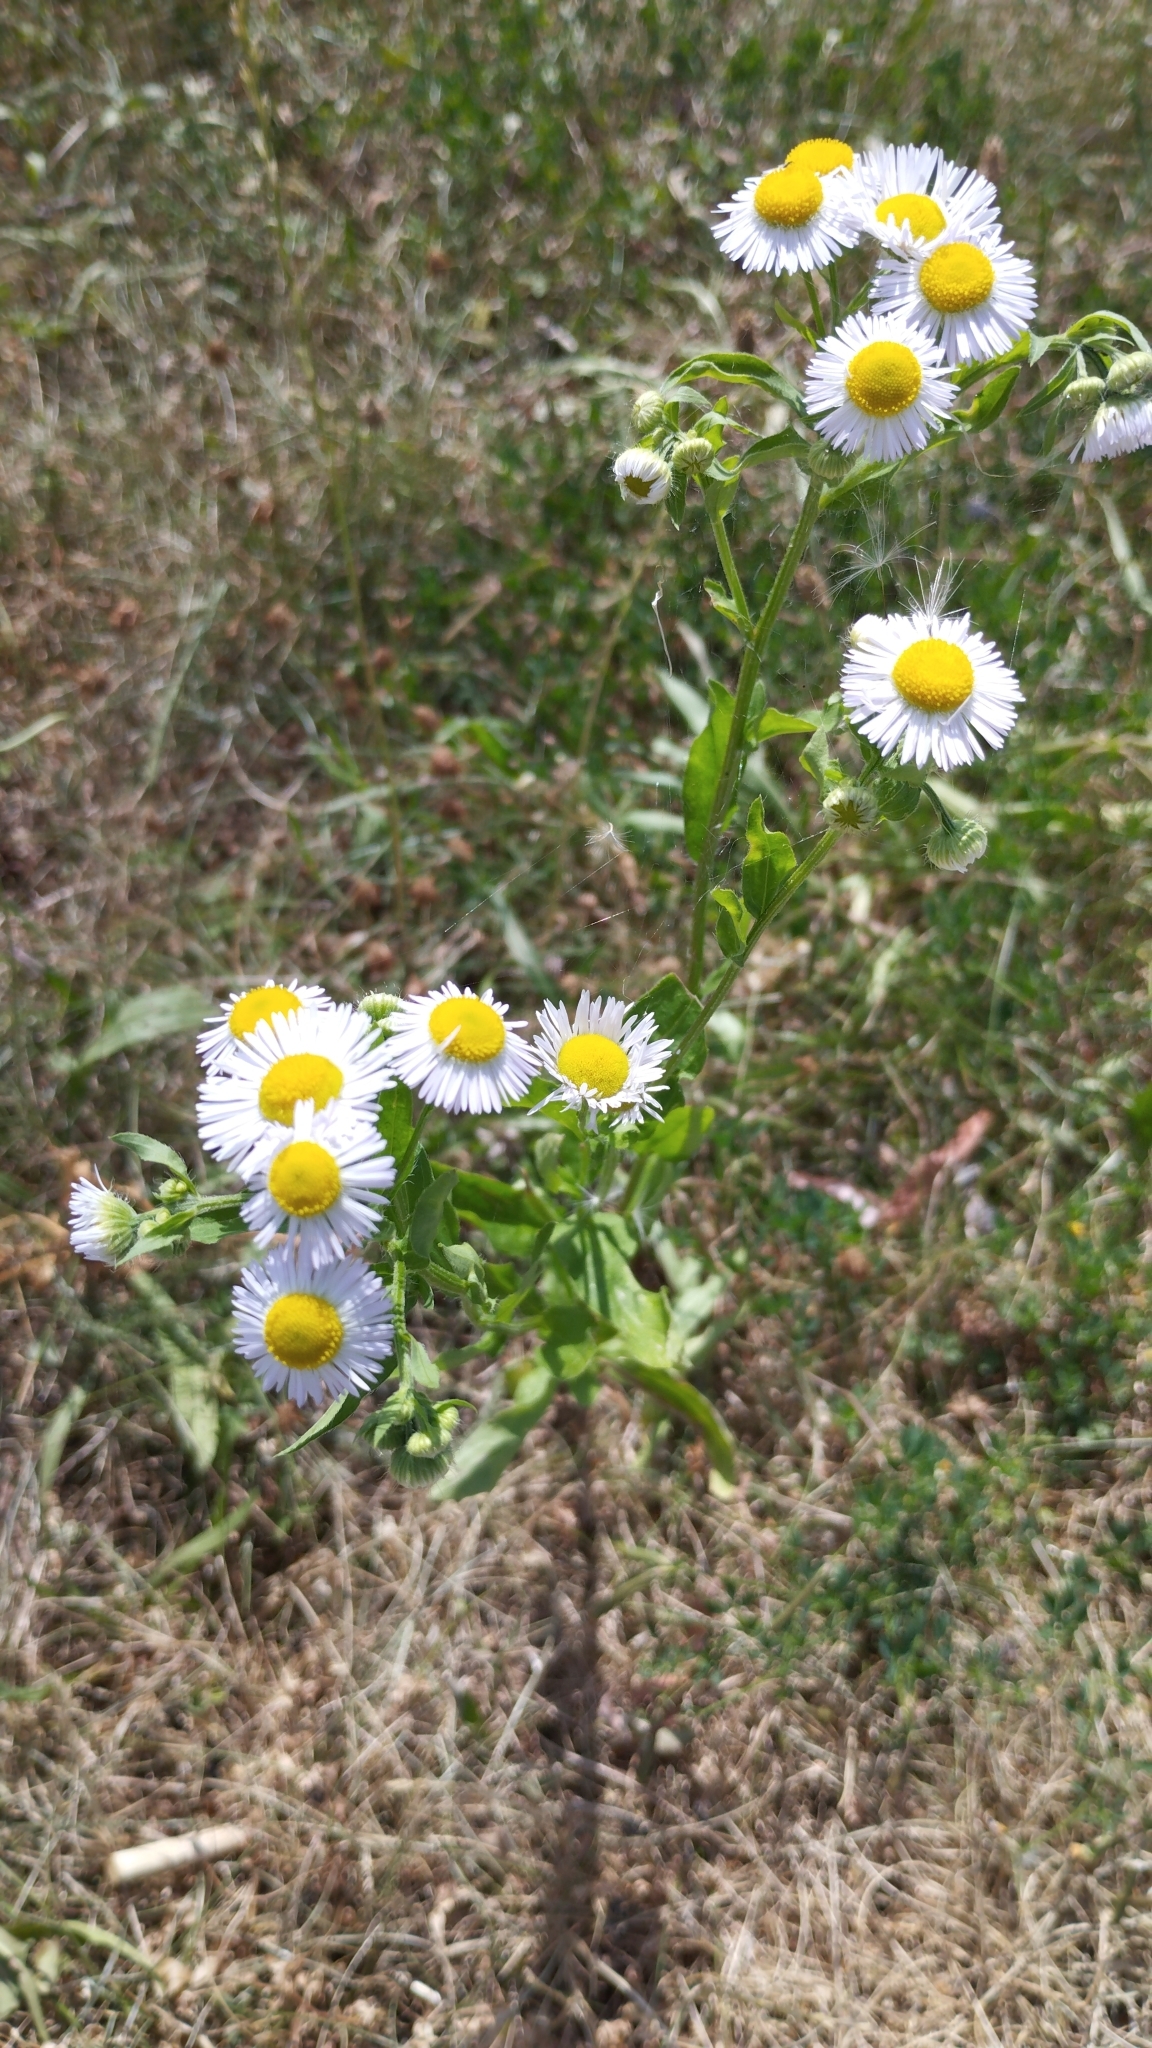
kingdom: Plantae
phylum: Tracheophyta
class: Magnoliopsida
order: Asterales
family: Asteraceae
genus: Erigeron
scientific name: Erigeron annuus
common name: Tall fleabane
